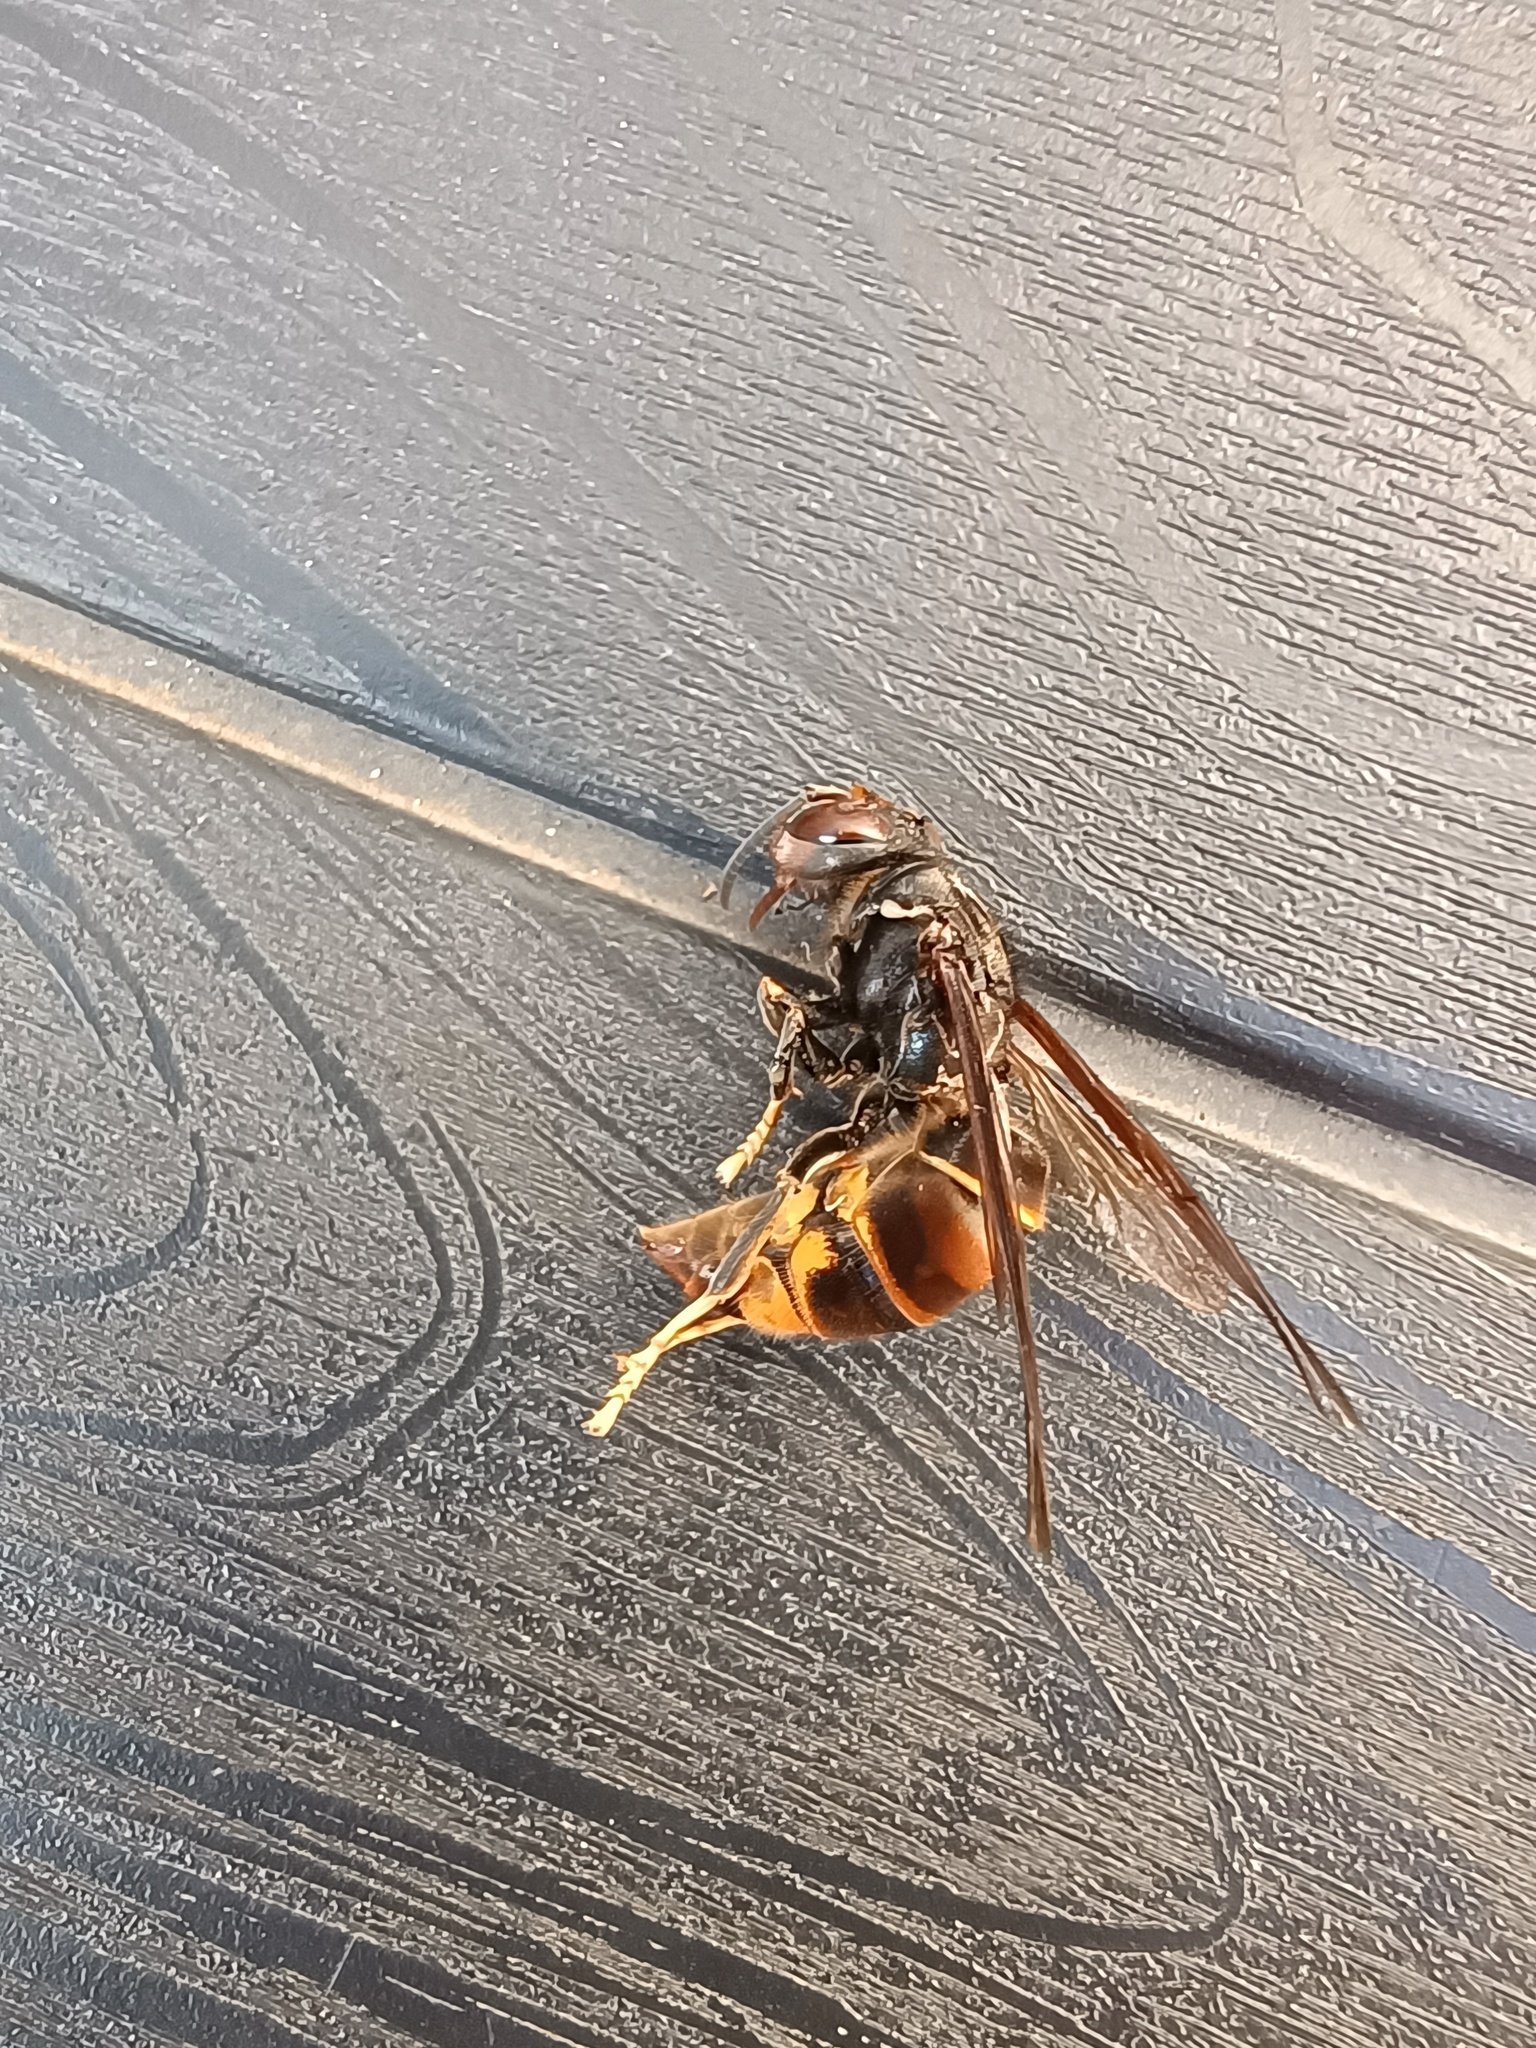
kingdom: Animalia
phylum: Arthropoda
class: Insecta
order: Hymenoptera
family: Vespidae
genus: Vespa
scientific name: Vespa velutina
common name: Asian hornet
